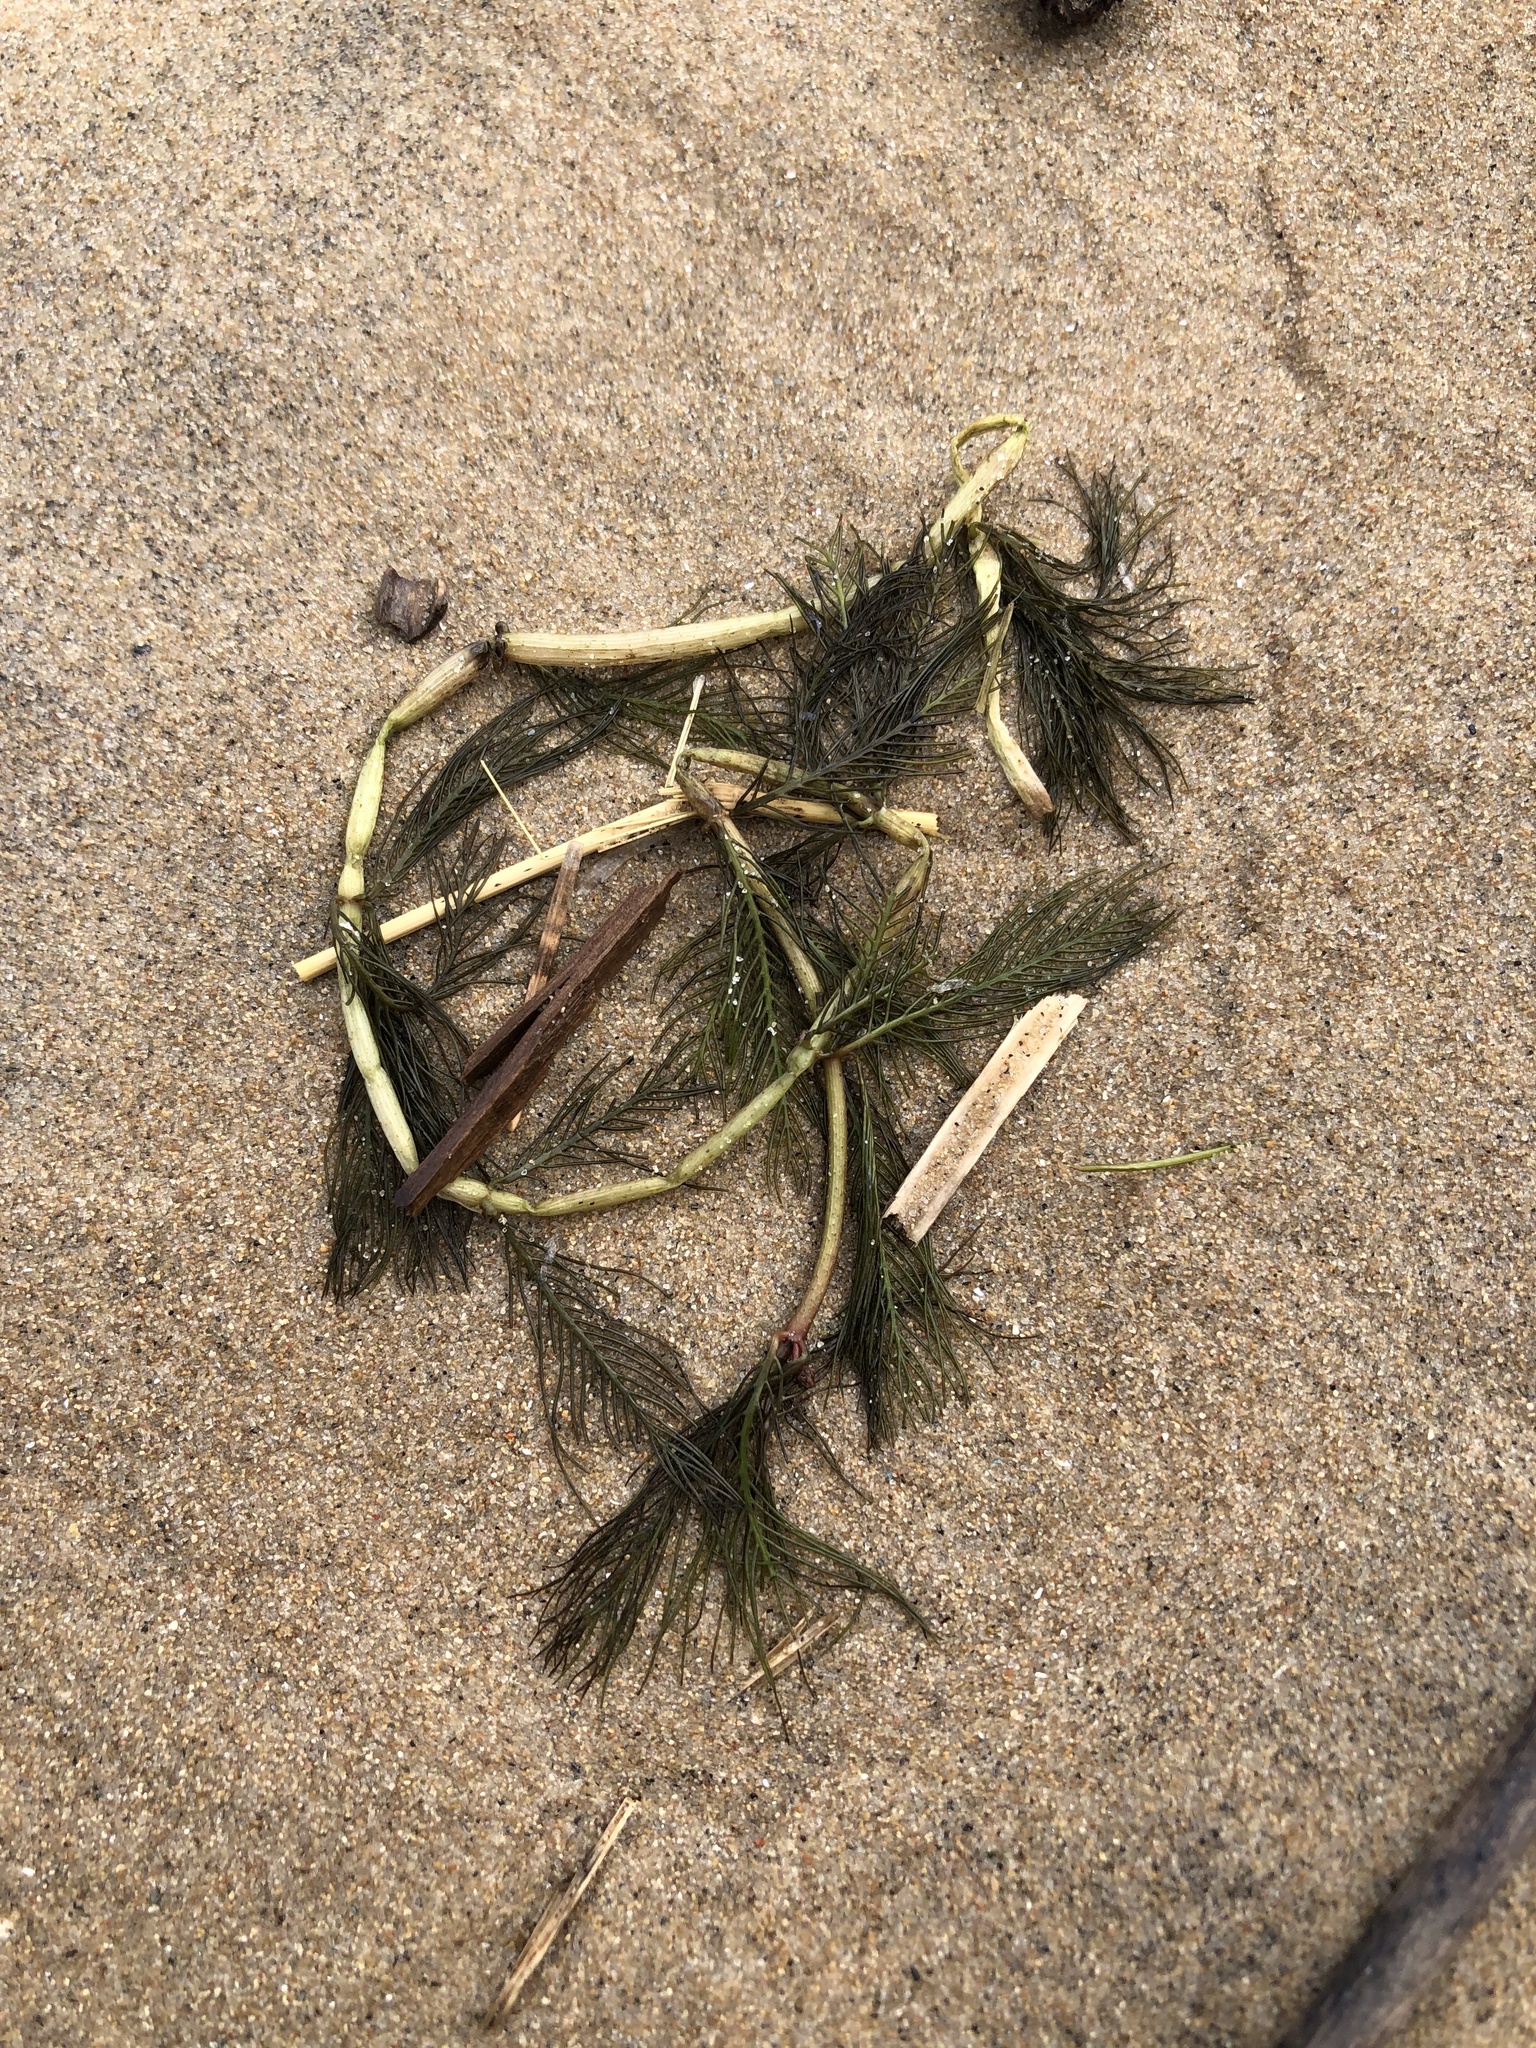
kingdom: Plantae
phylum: Tracheophyta
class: Magnoliopsida
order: Saxifragales
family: Haloragaceae
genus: Myriophyllum
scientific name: Myriophyllum spicatum
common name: Spiked water-milfoil
